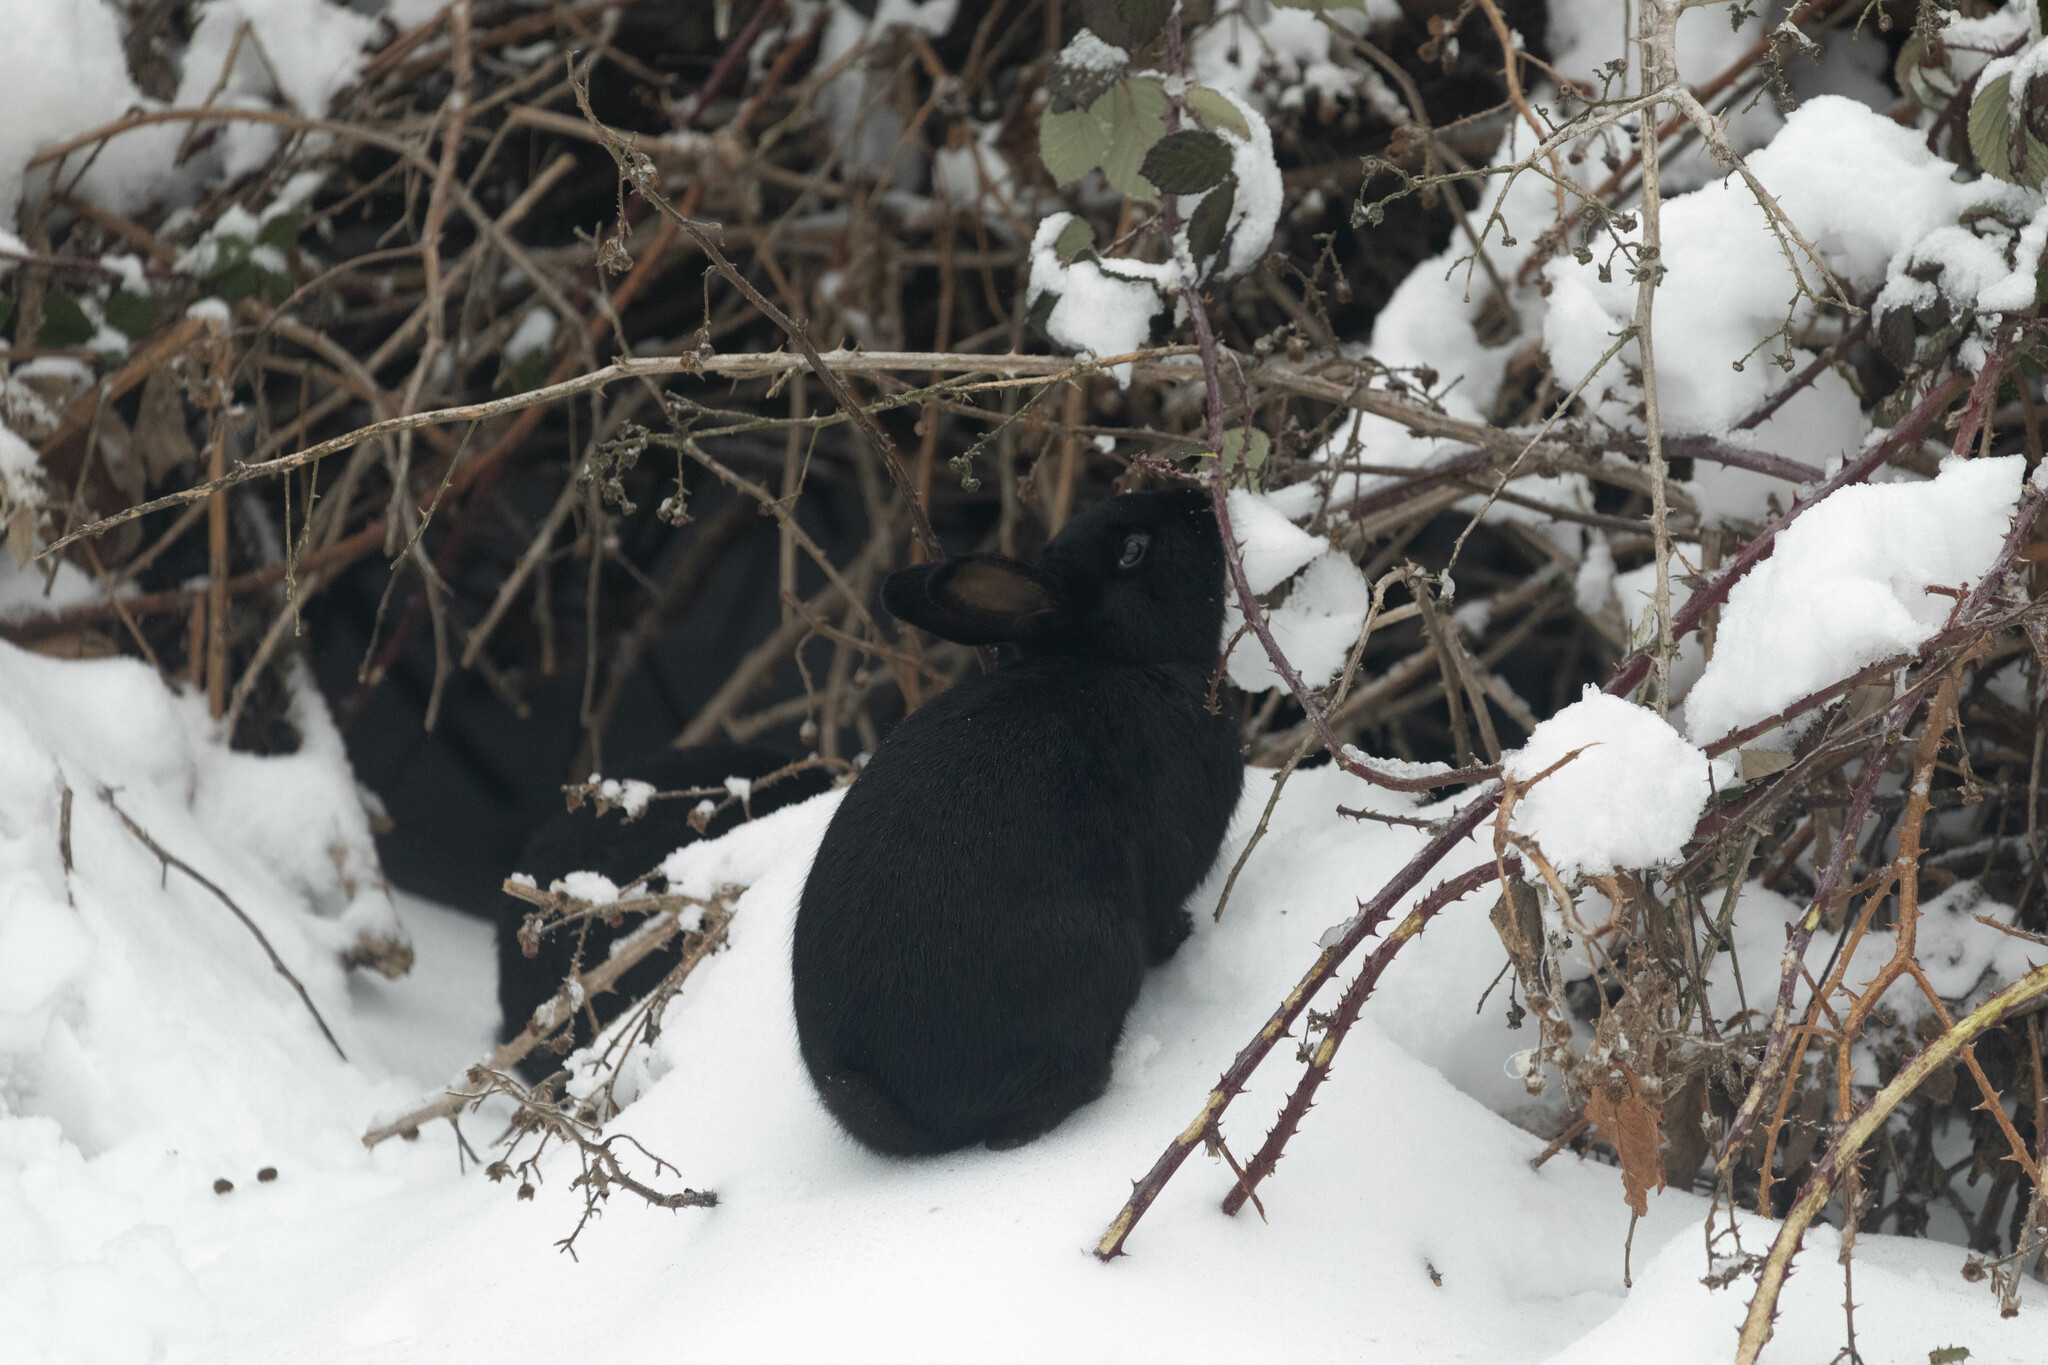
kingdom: Animalia
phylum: Chordata
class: Mammalia
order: Lagomorpha
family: Leporidae
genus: Oryctolagus
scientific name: Oryctolagus cuniculus
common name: European rabbit
